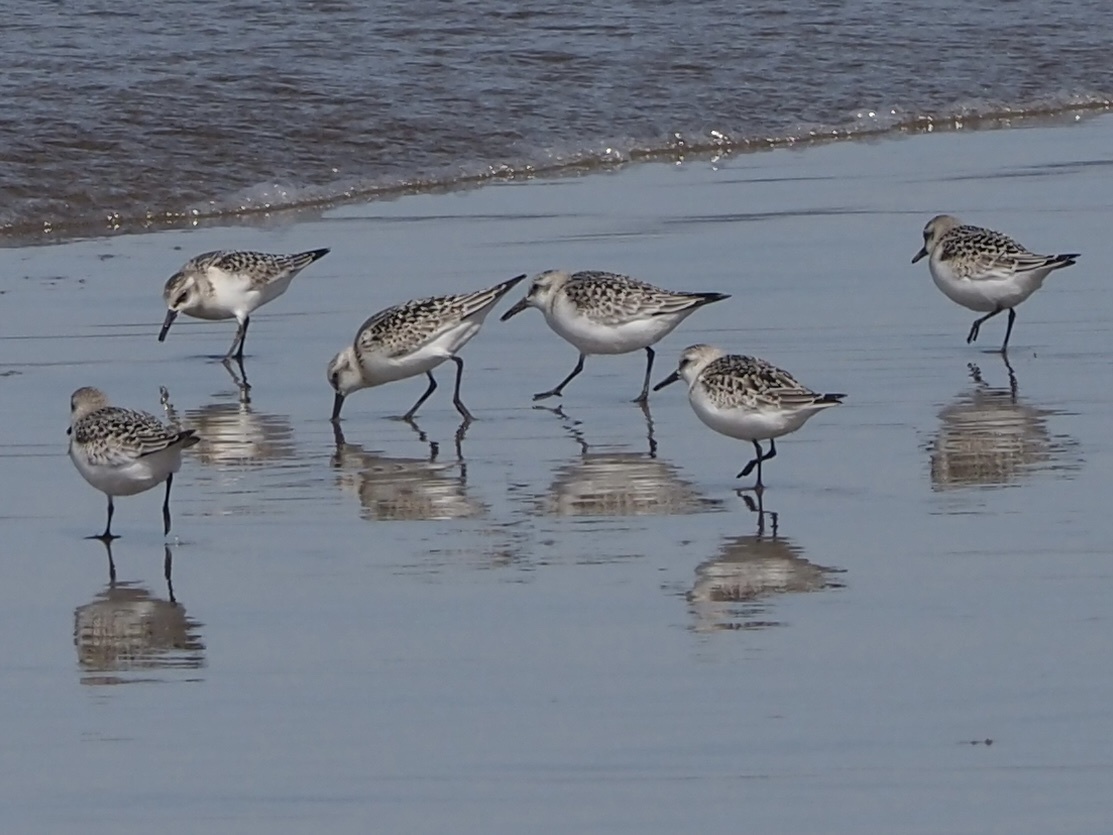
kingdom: Animalia
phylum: Chordata
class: Aves
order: Charadriiformes
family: Scolopacidae
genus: Calidris
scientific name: Calidris alba
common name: Sanderling
